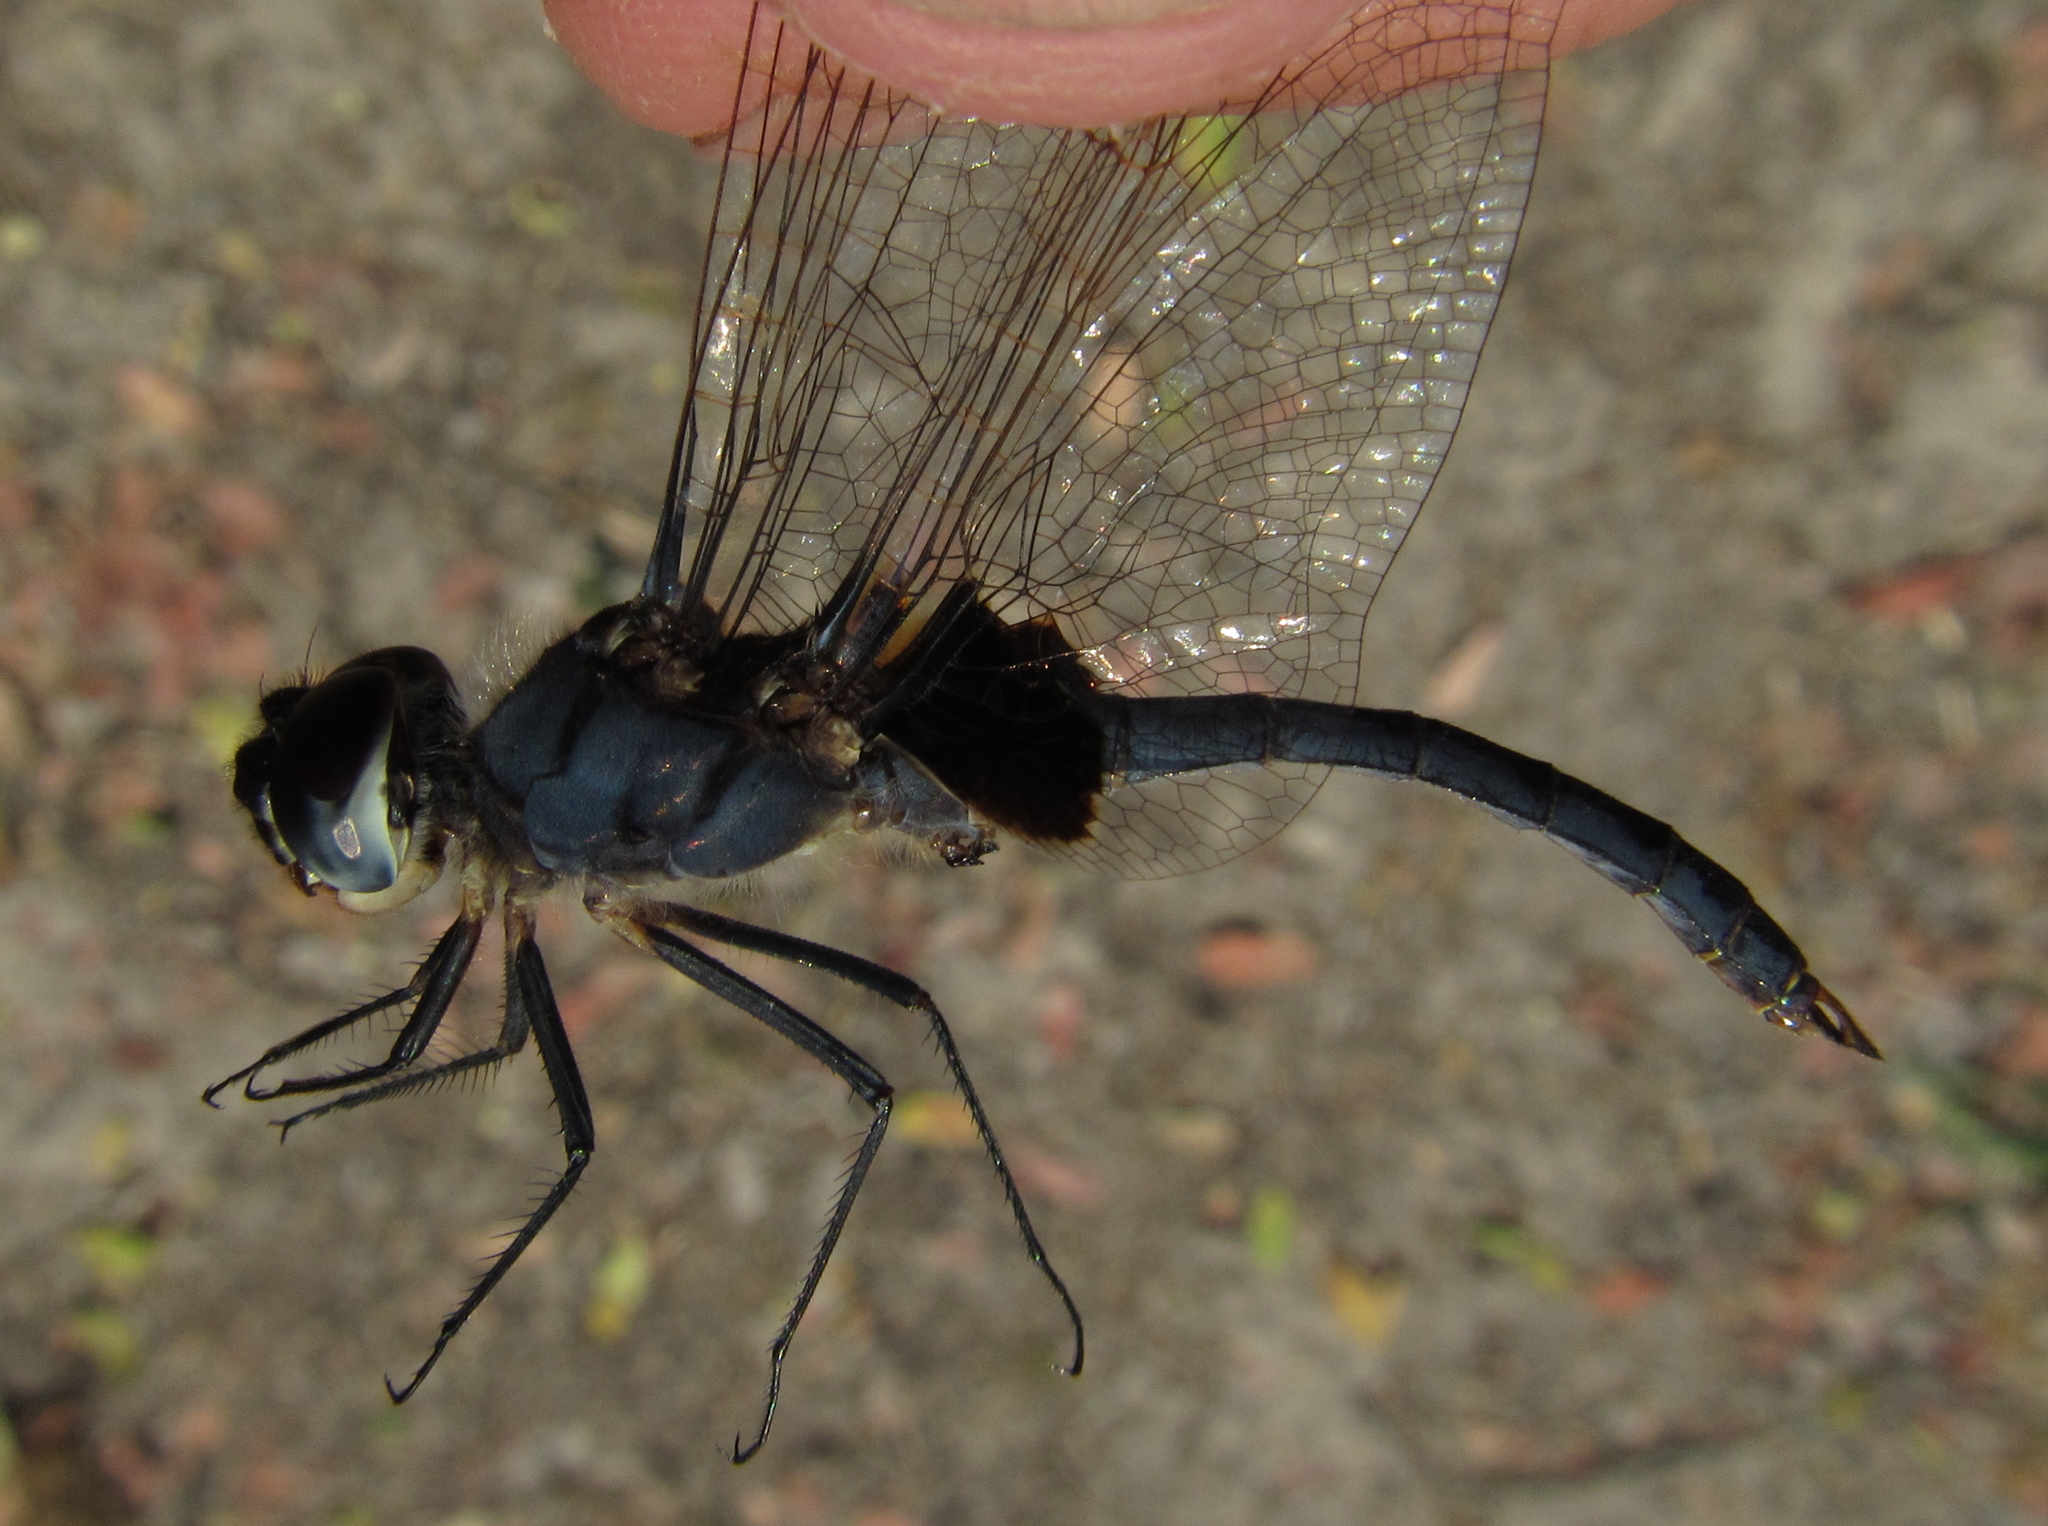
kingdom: Animalia
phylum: Arthropoda
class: Insecta
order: Odonata
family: Libellulidae
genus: Urothemis
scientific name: Urothemis edwardsii
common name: Blue basker
